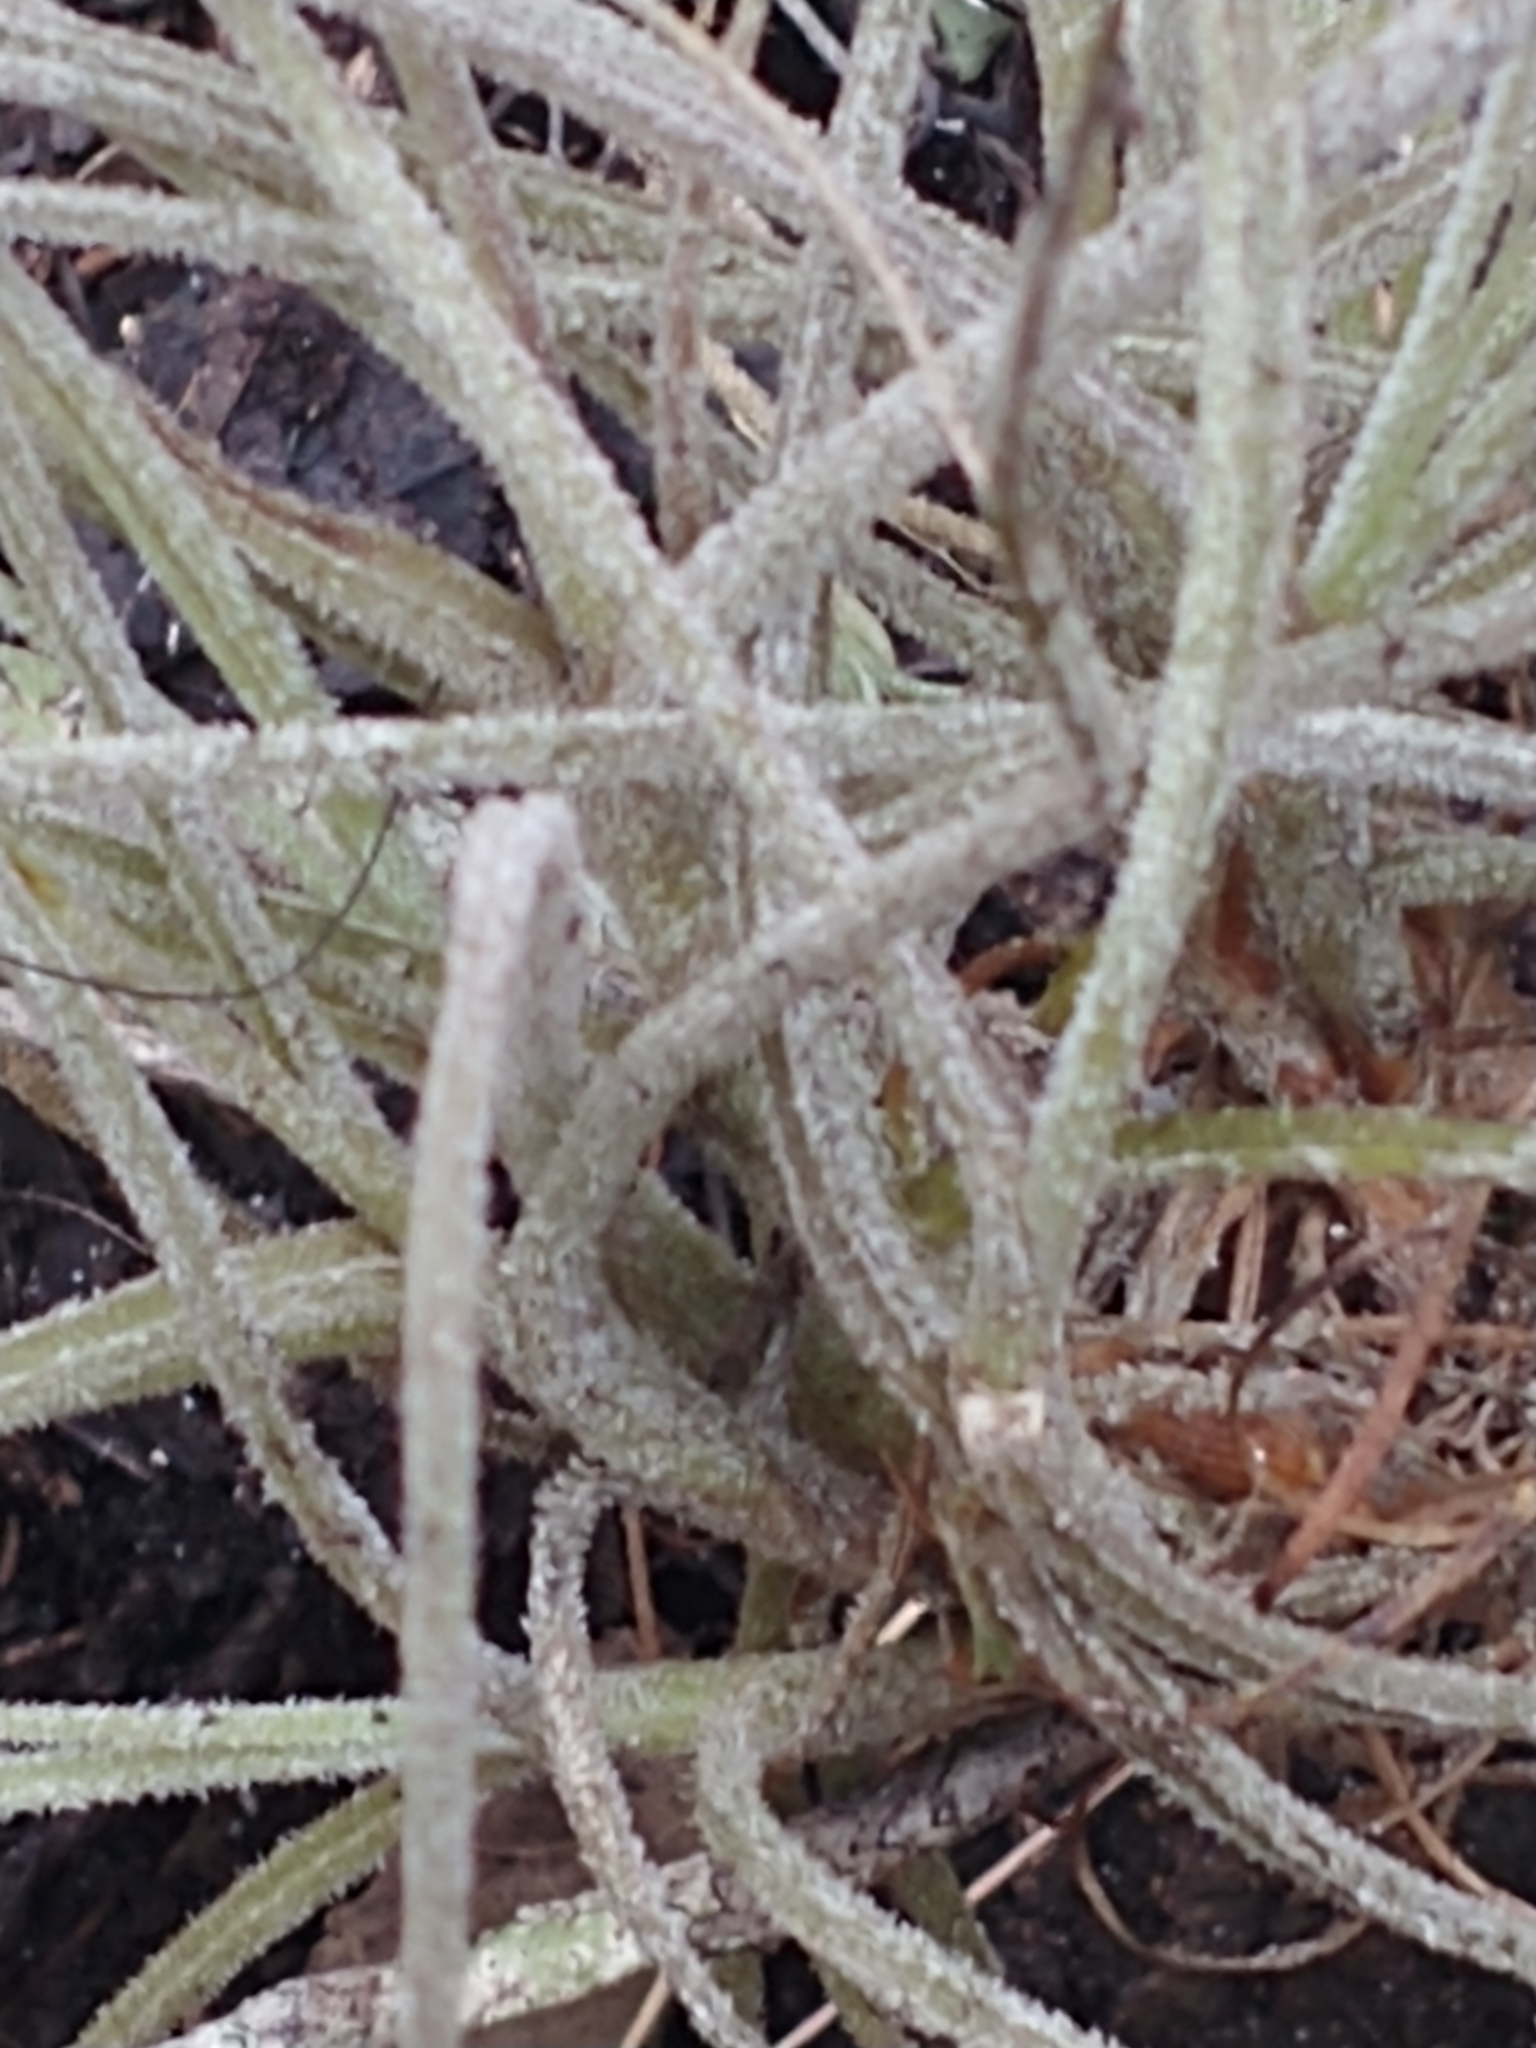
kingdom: Plantae
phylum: Tracheophyta
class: Liliopsida
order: Poales
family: Bromeliaceae
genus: Tillandsia
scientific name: Tillandsia recurvata
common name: Small ballmoss
